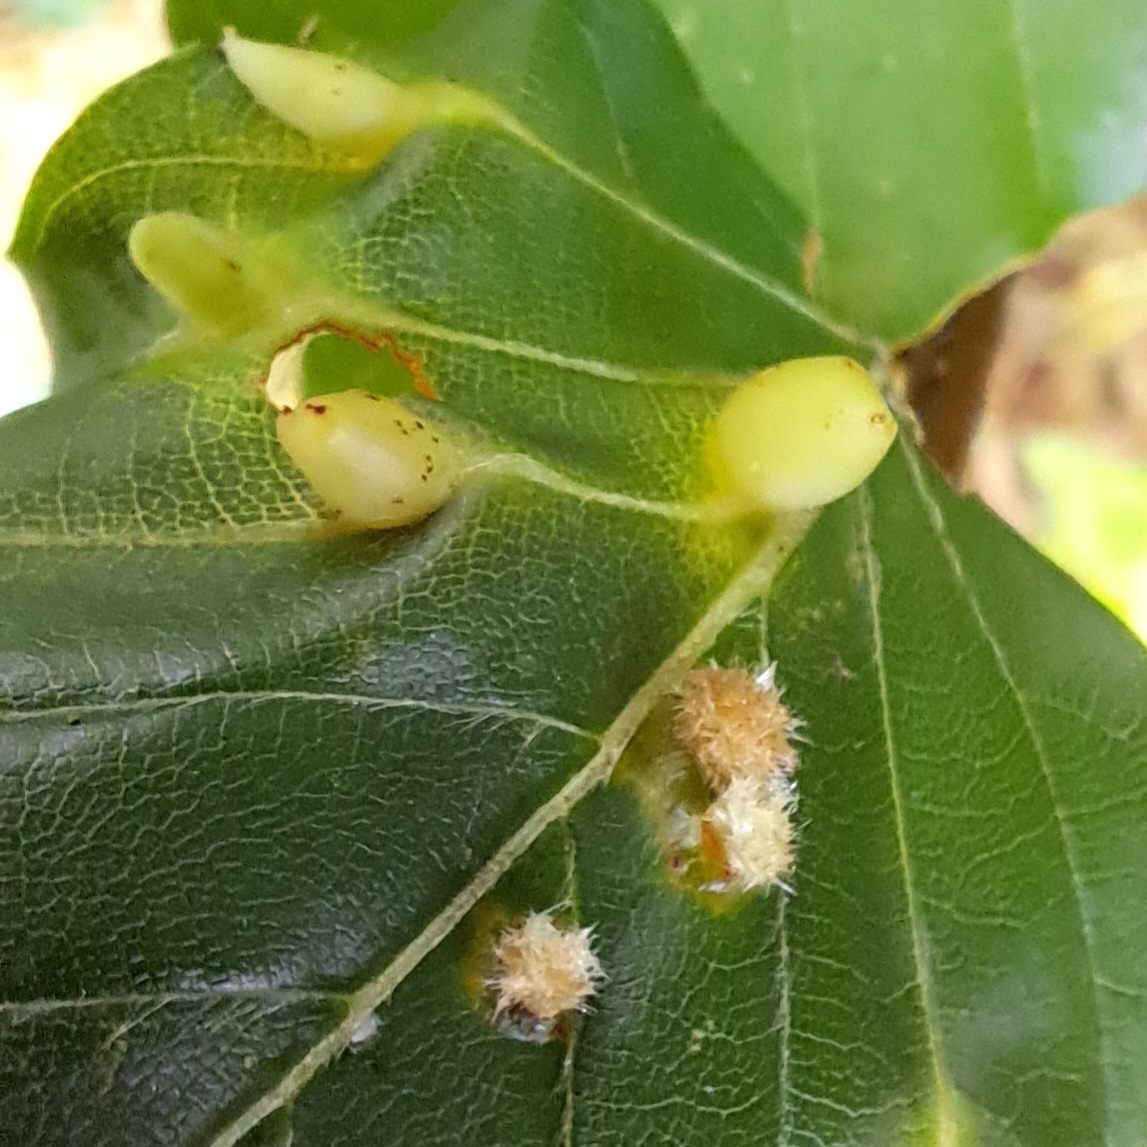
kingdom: Animalia
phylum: Arthropoda
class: Insecta
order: Diptera
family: Cecidomyiidae
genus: Mikiola
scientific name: Mikiola fagi
